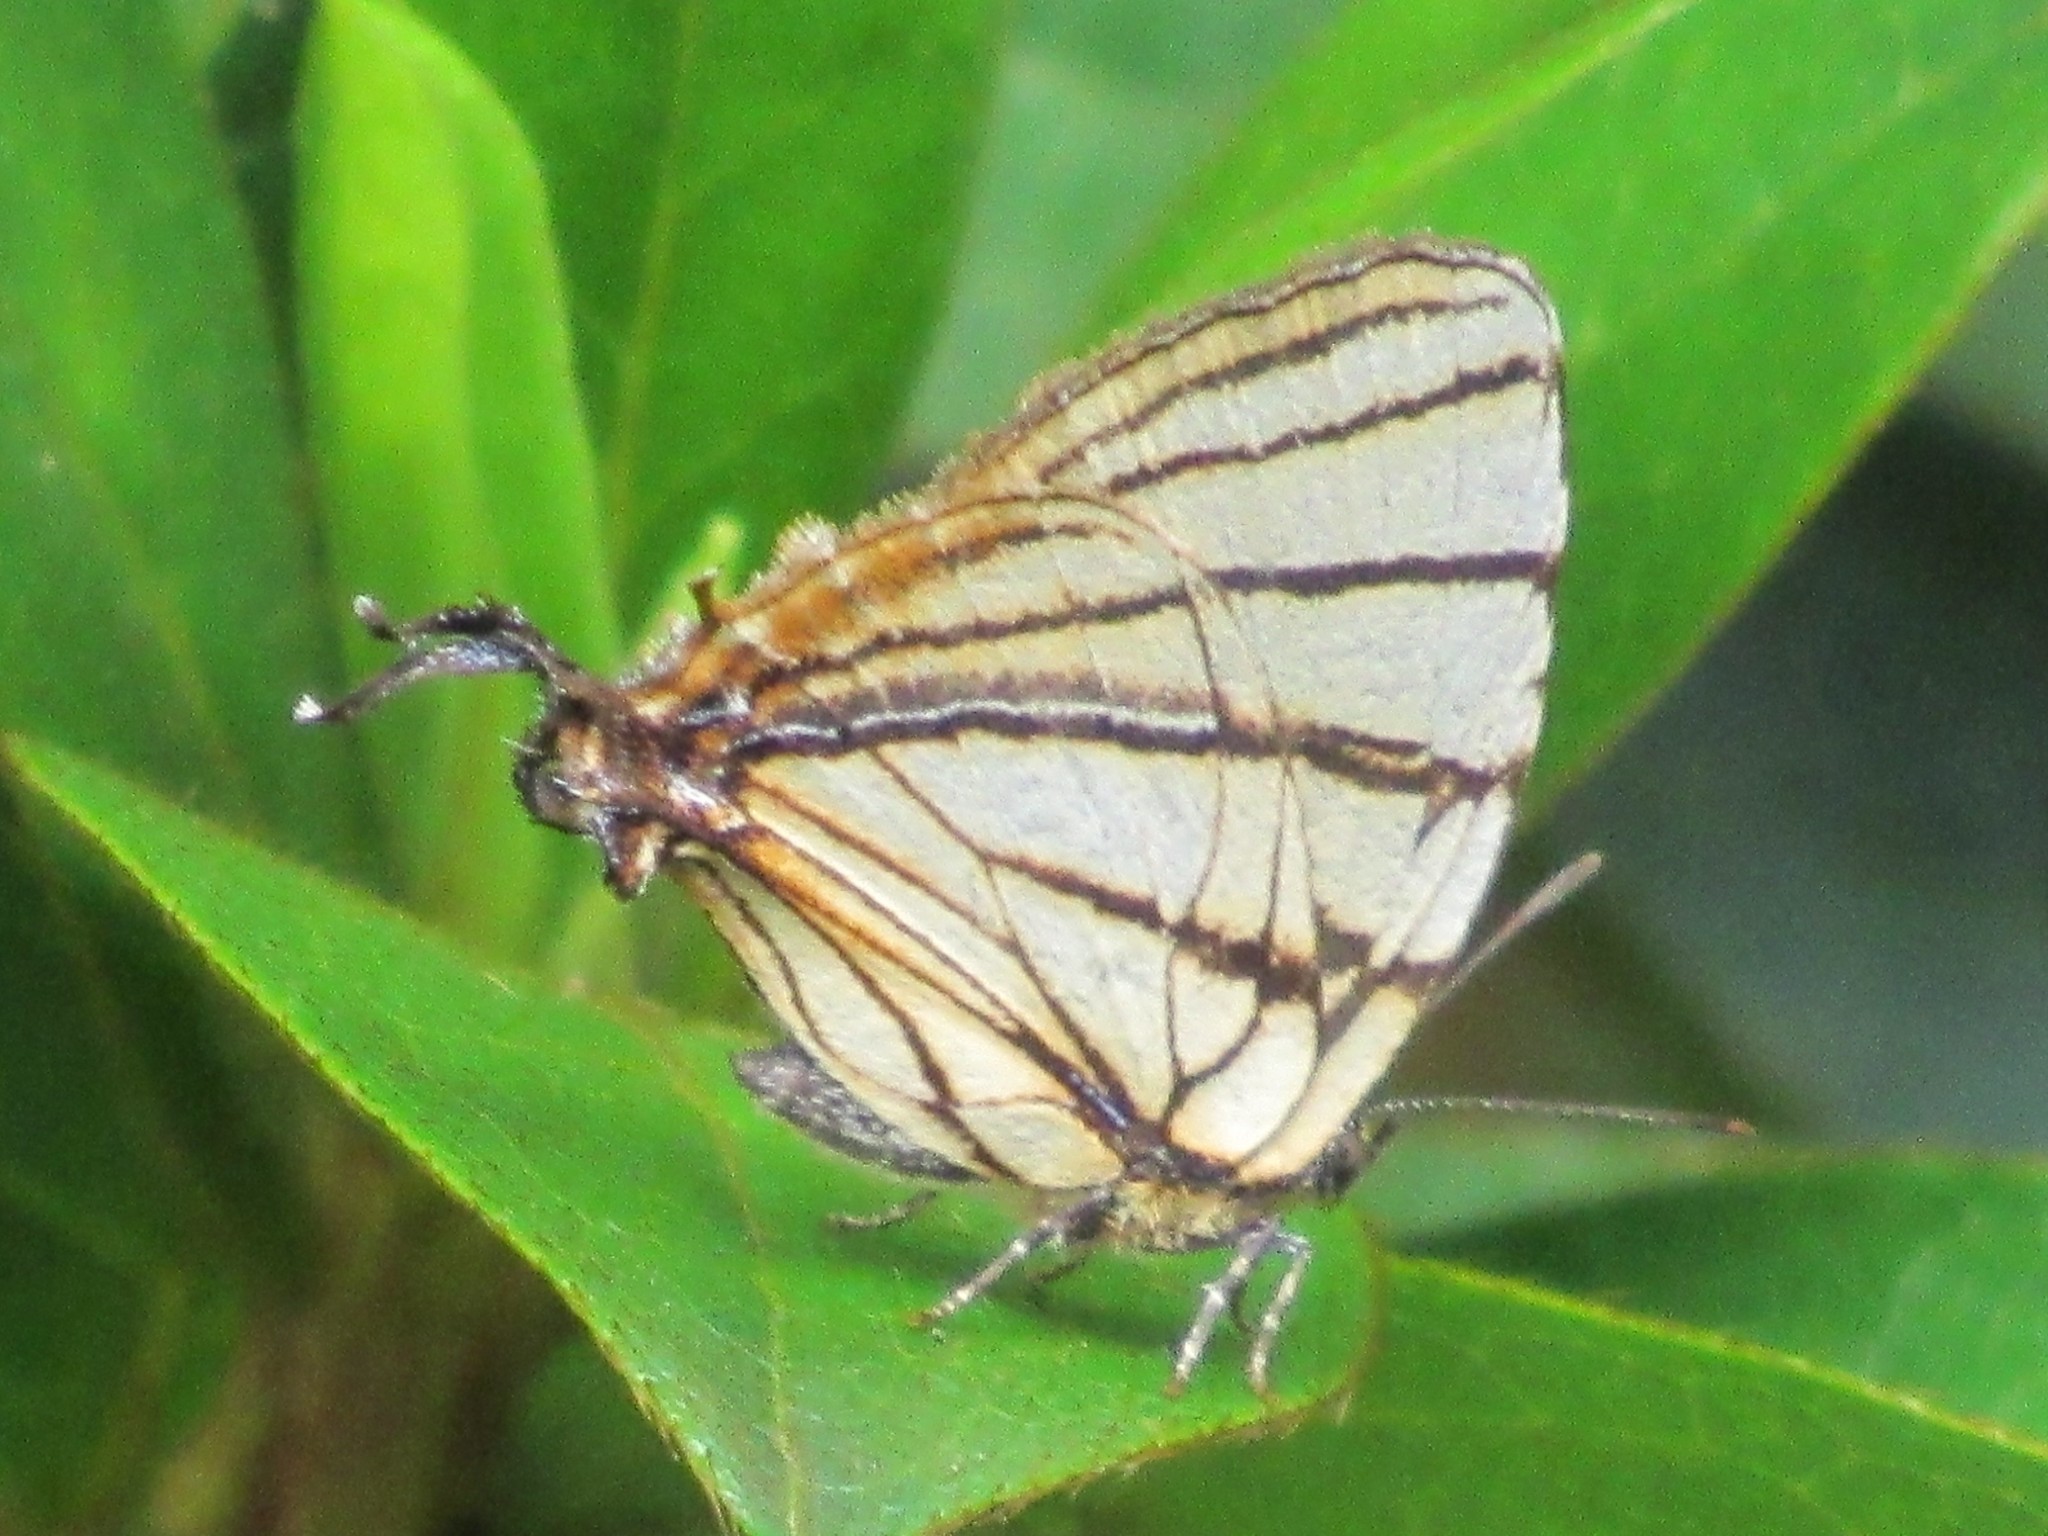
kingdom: Animalia
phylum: Arthropoda
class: Insecta
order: Lepidoptera
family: Lycaenidae
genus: Arawacus
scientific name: Arawacus melibaeus
